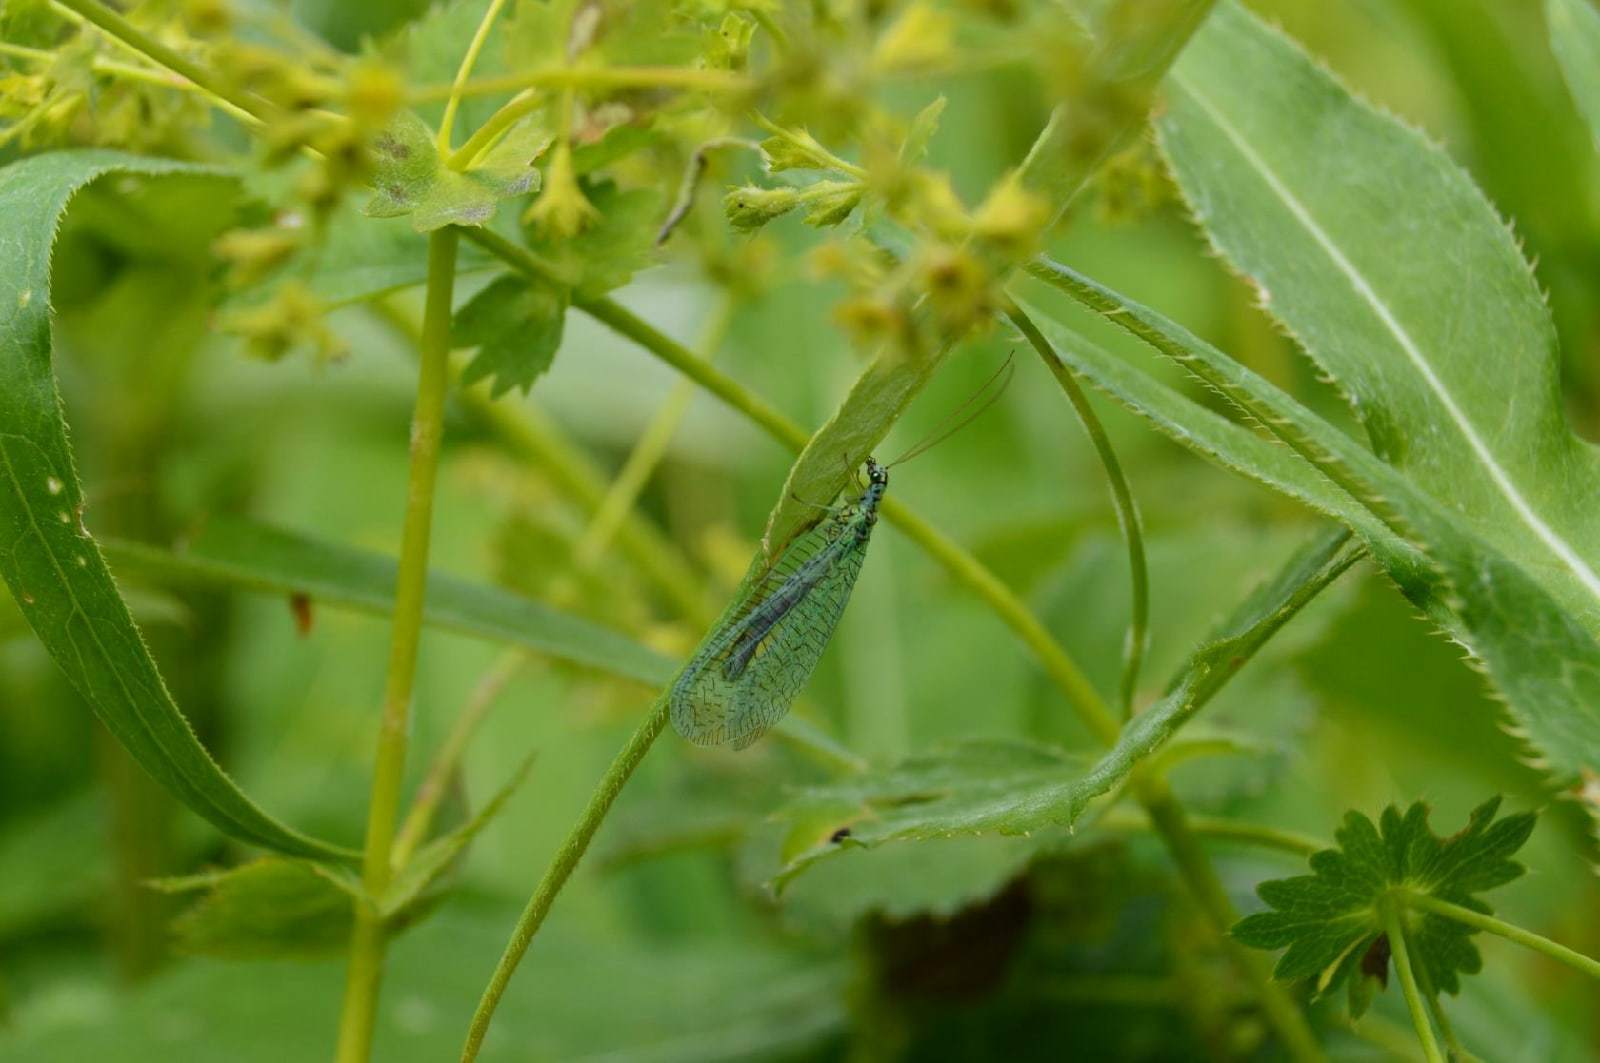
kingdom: Animalia
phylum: Arthropoda
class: Insecta
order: Neuroptera
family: Chrysopidae
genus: Chrysopa
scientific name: Chrysopa perla
